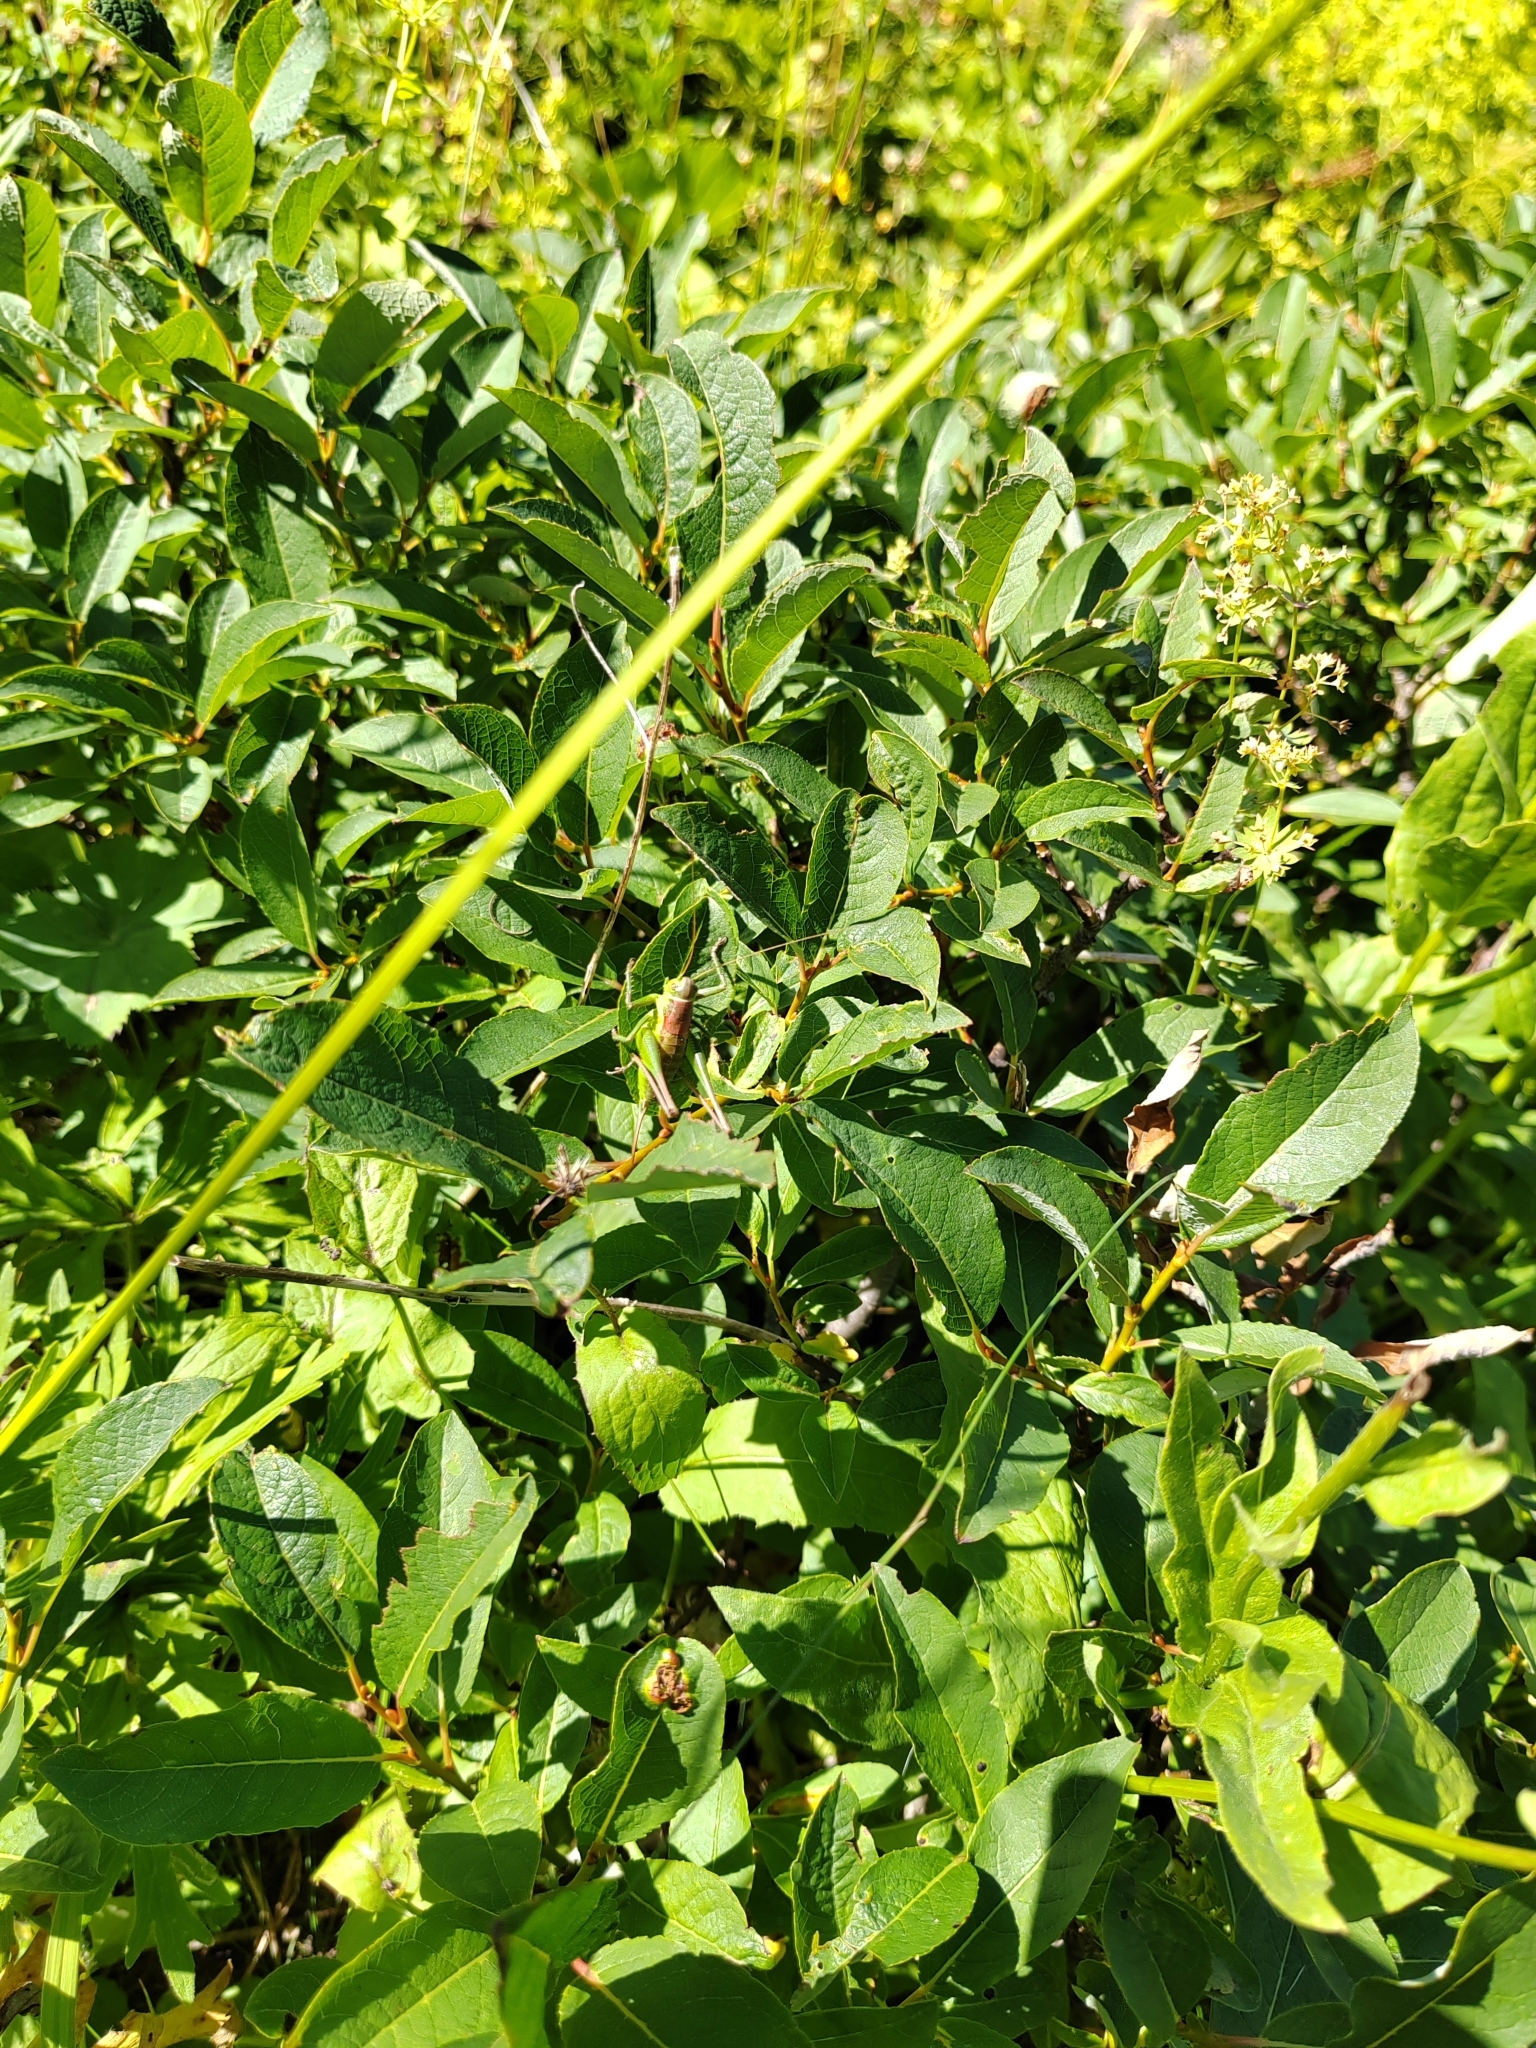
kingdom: Plantae
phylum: Tracheophyta
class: Magnoliopsida
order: Gentianales
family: Gentianaceae
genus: Swertia
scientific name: Swertia iberica
